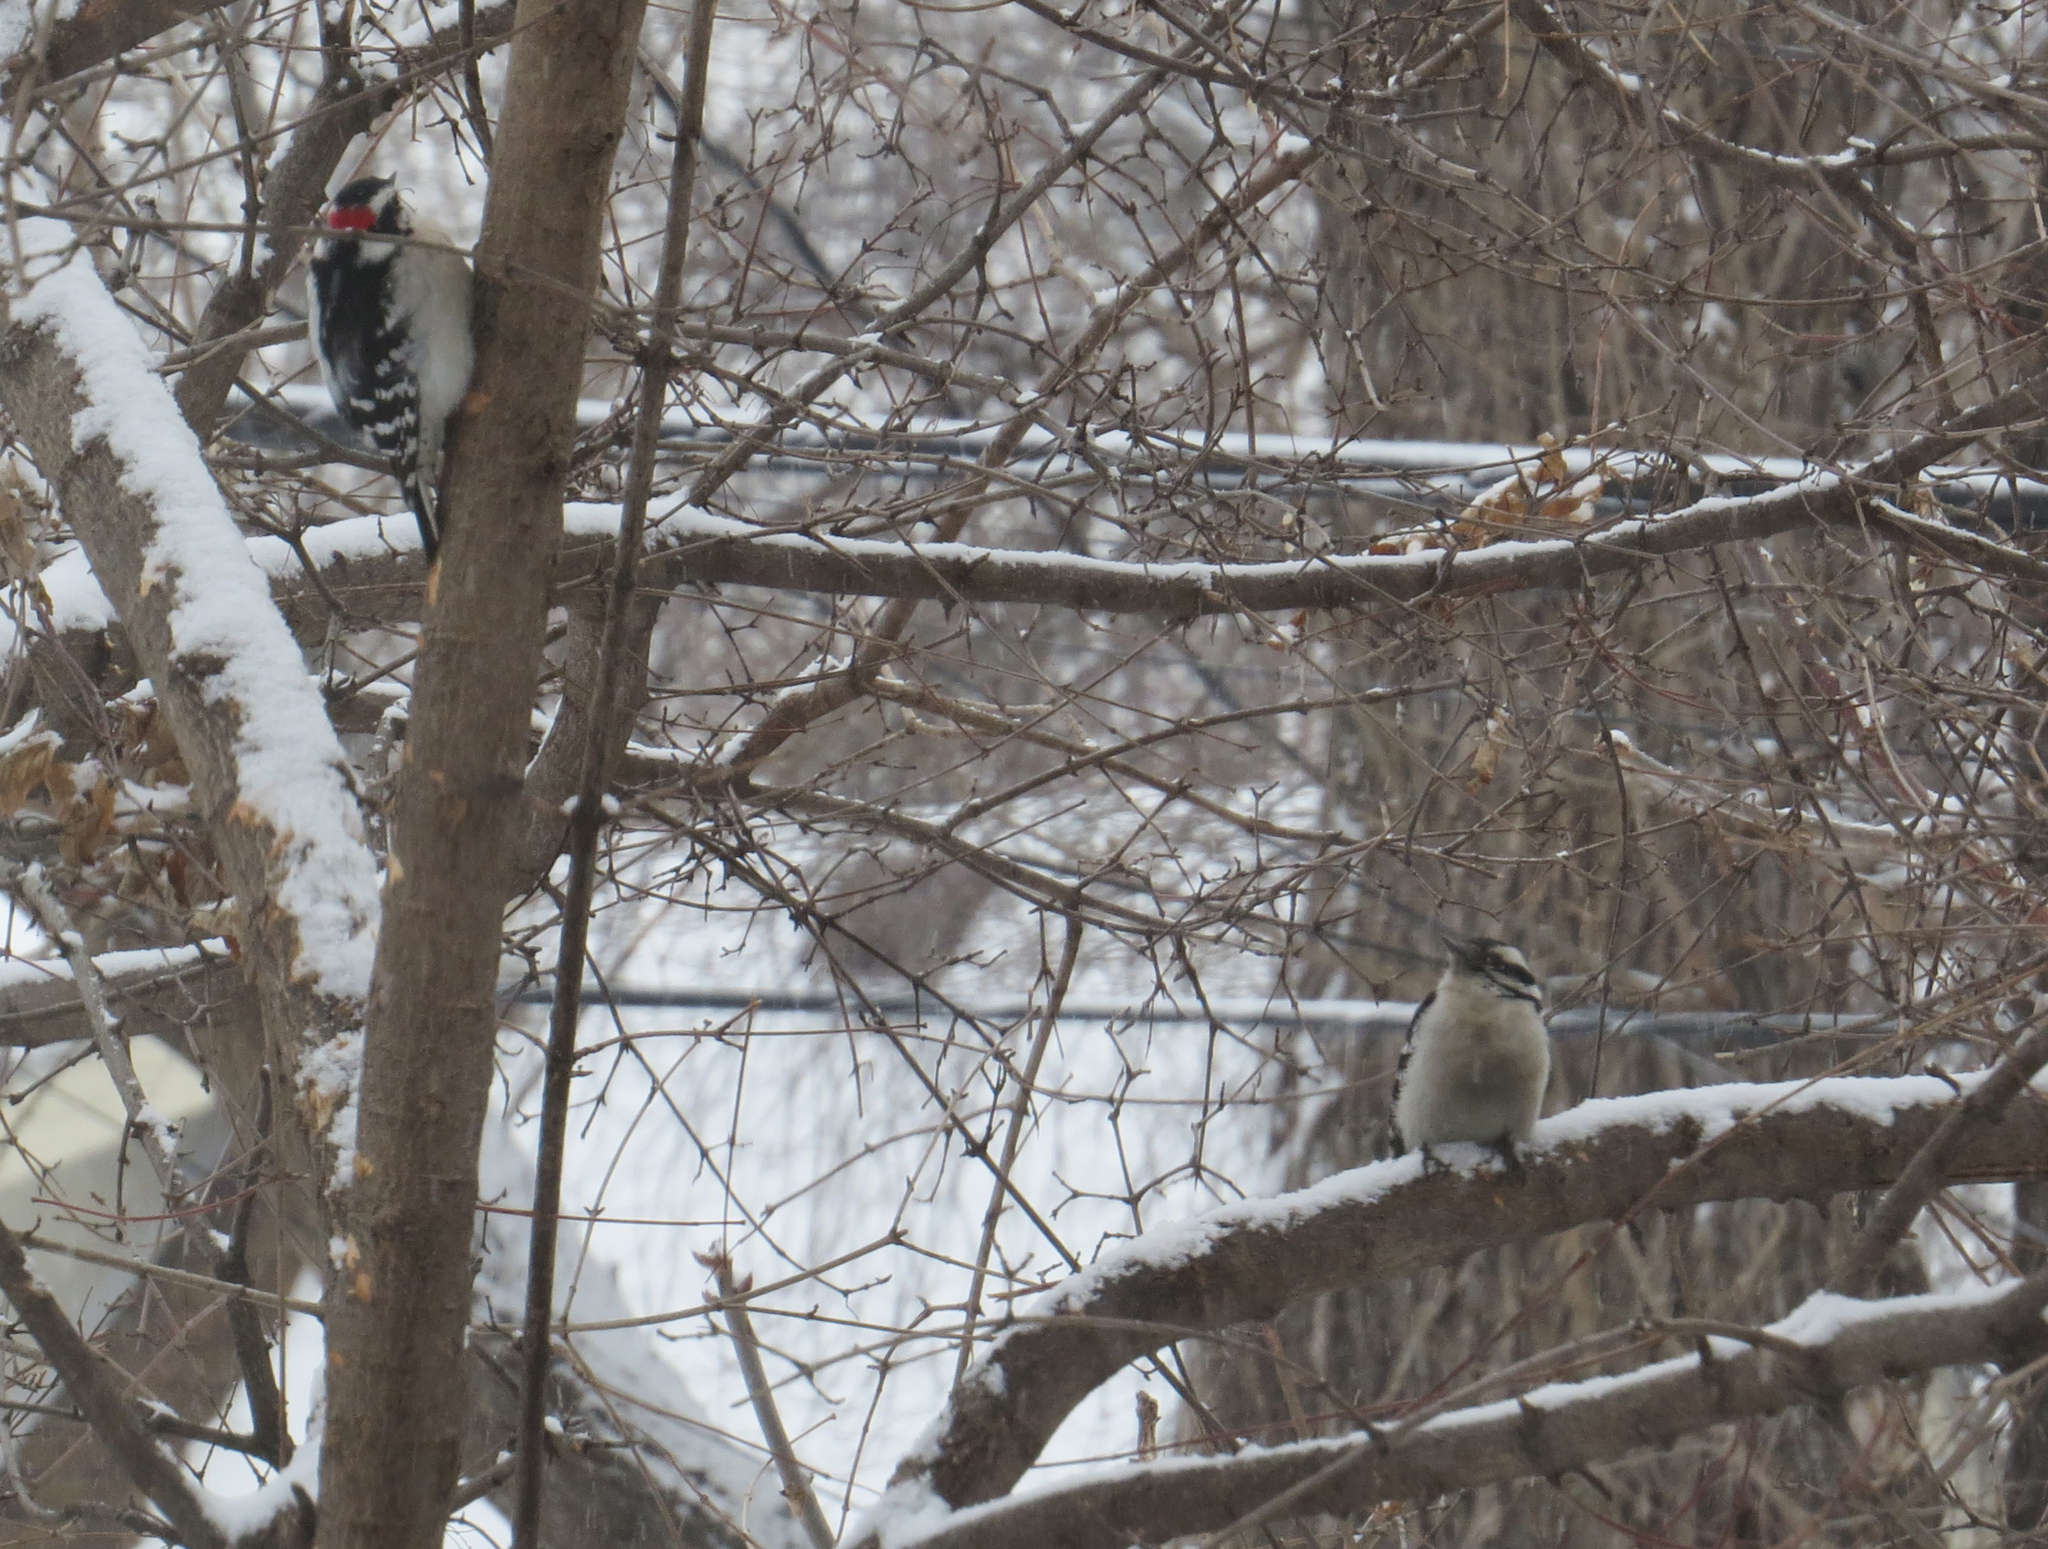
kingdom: Animalia
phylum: Chordata
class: Aves
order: Piciformes
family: Picidae
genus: Dryobates
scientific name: Dryobates pubescens
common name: Downy woodpecker
